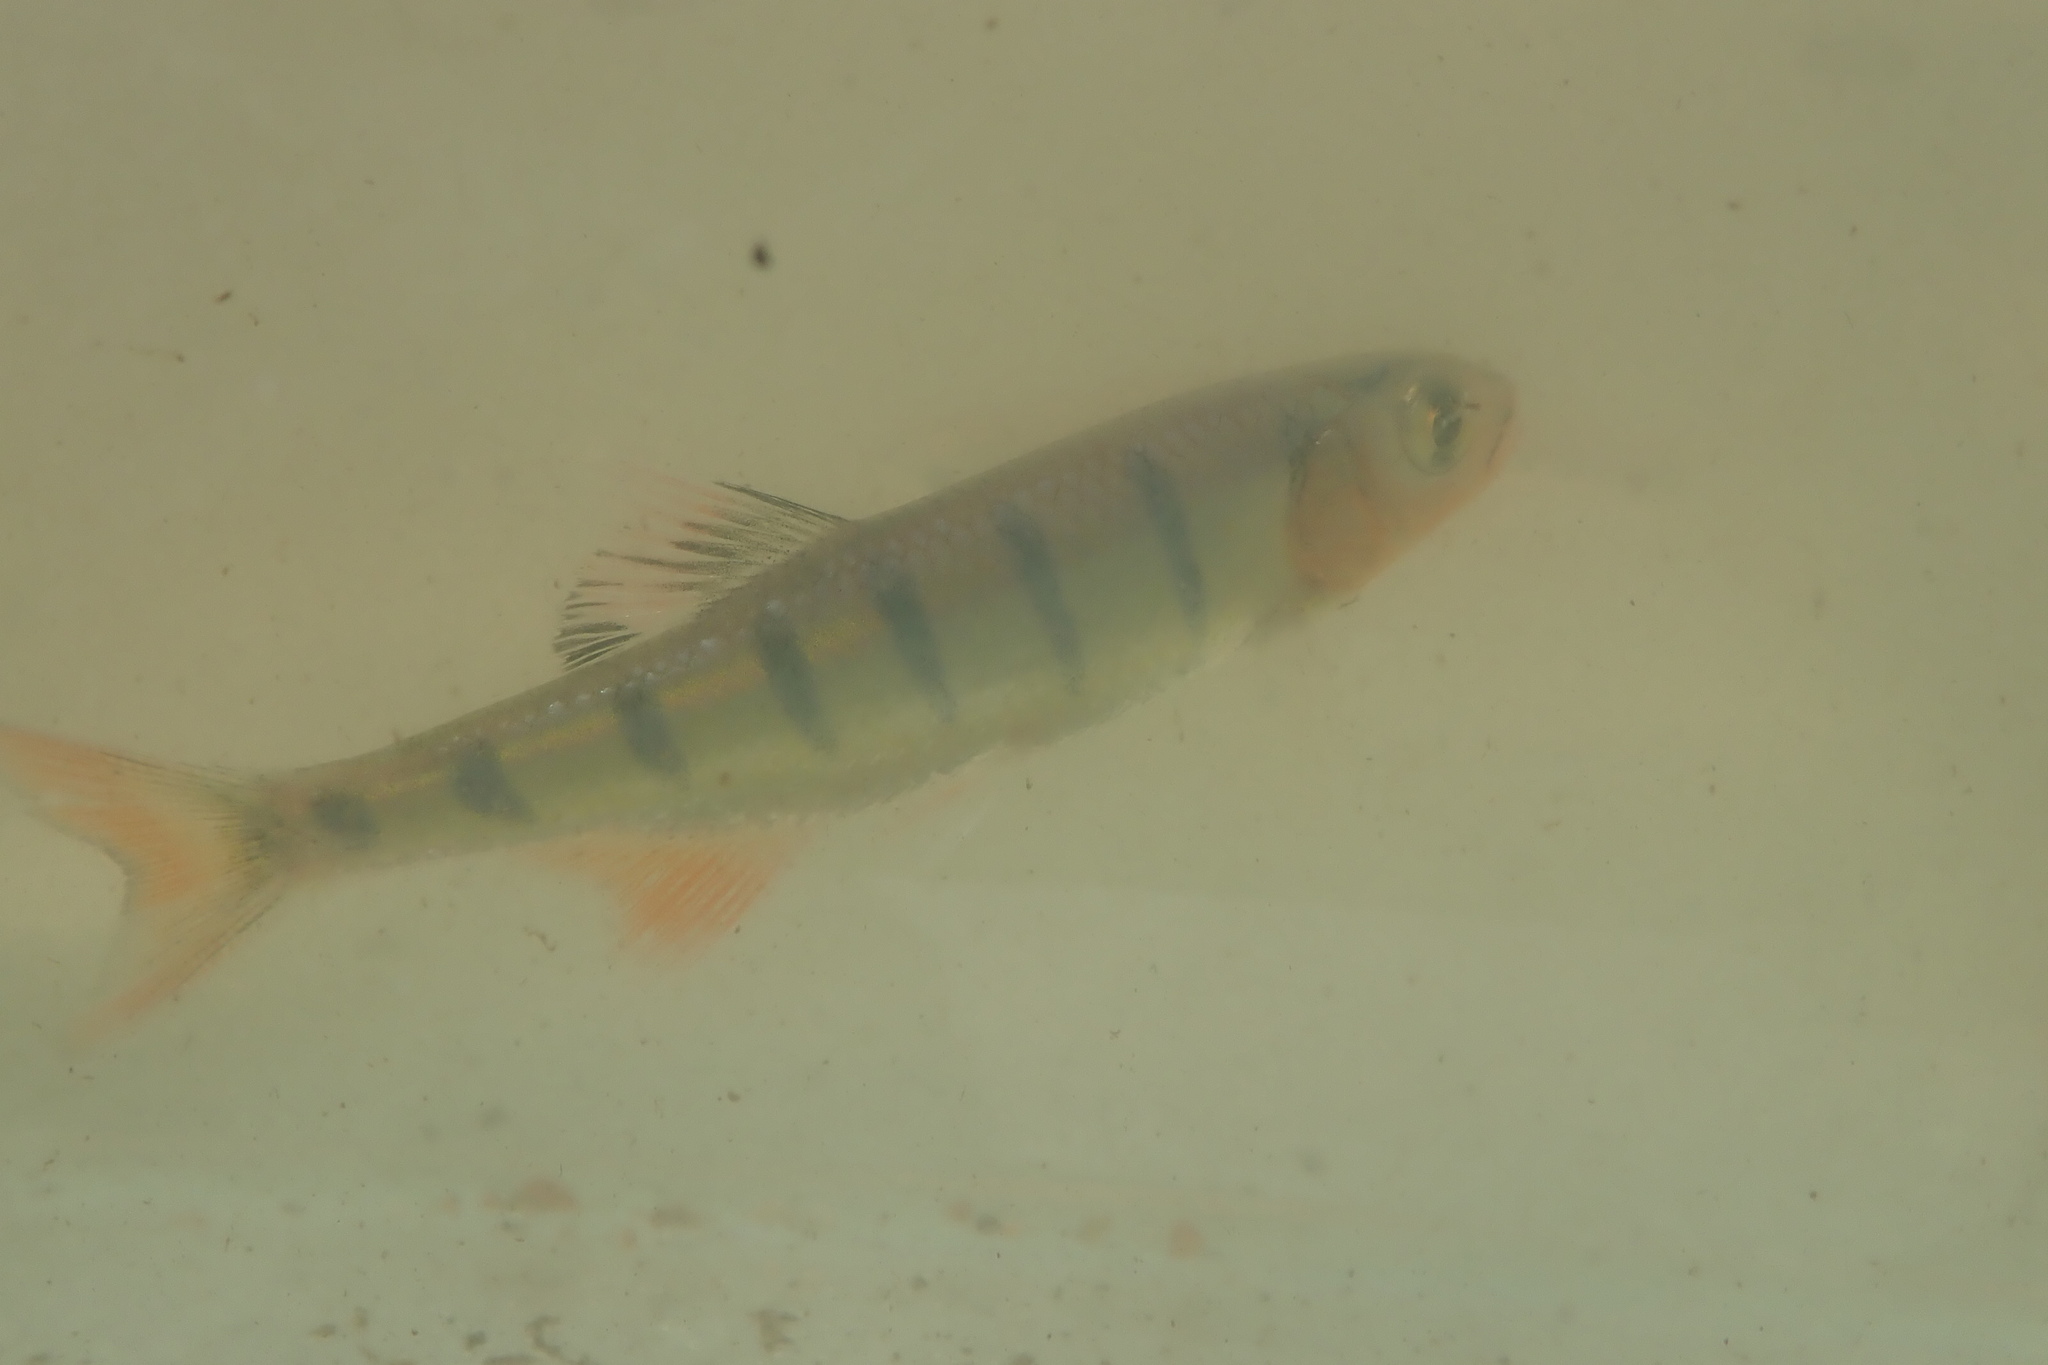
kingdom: Animalia
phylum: Chordata
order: Cypriniformes
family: Cyprinidae
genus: Opsaridium
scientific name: Opsaridium peringueyi
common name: Southern barred minnow
